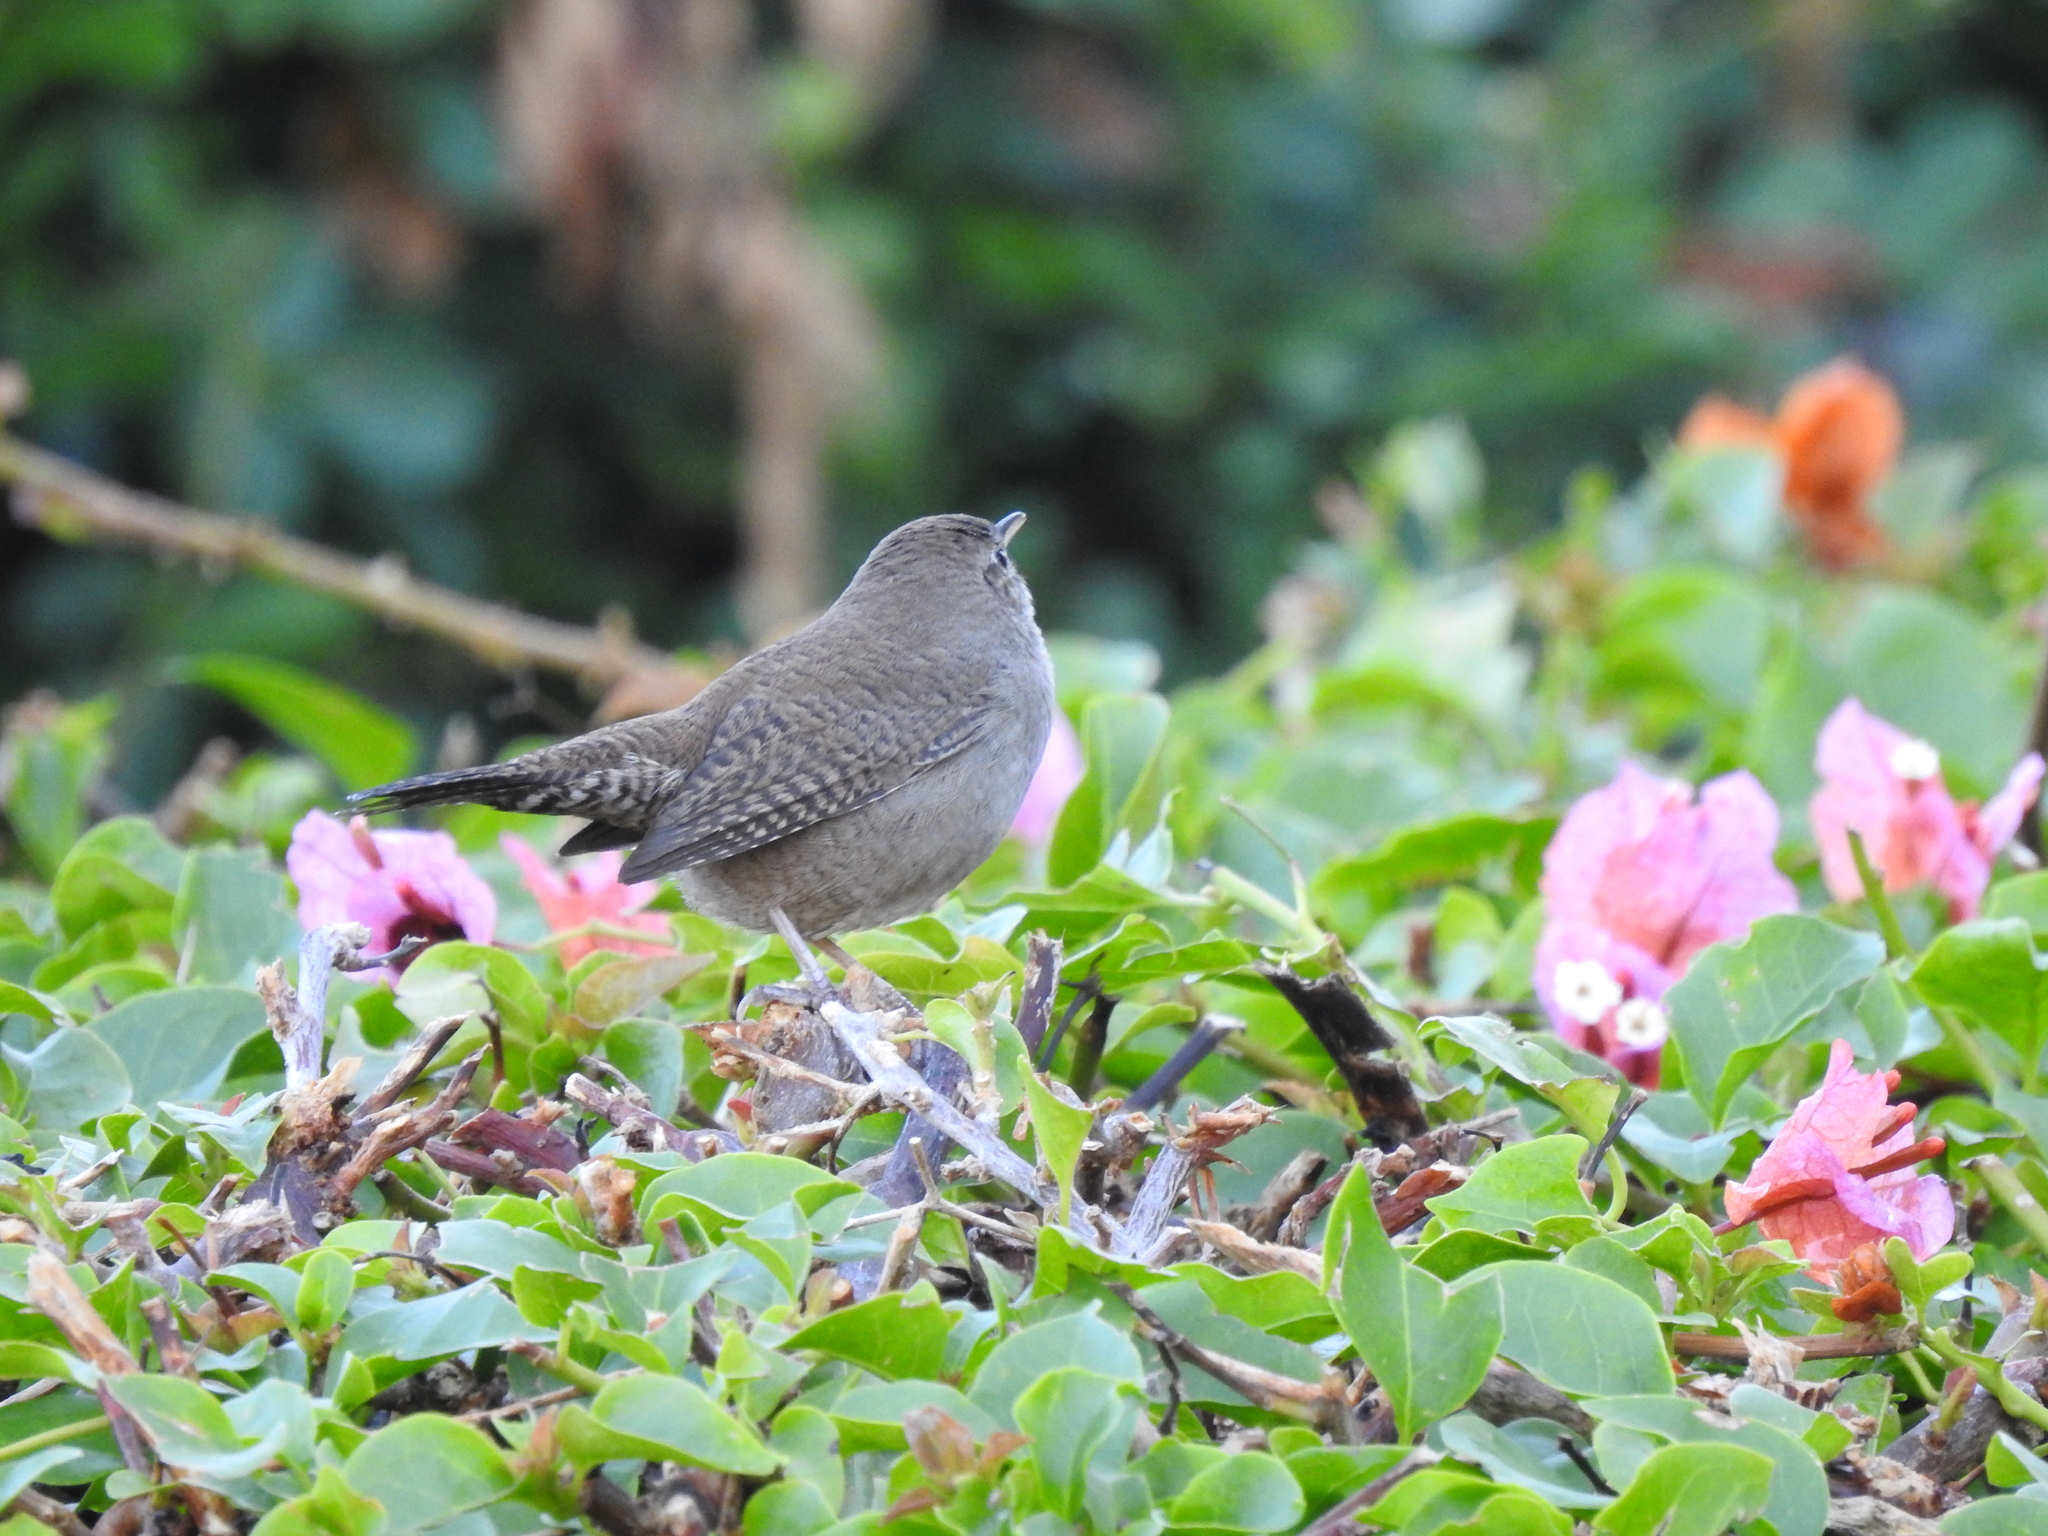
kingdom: Animalia
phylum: Chordata
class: Aves
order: Passeriformes
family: Troglodytidae
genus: Troglodytes
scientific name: Troglodytes aedon
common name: House wren
